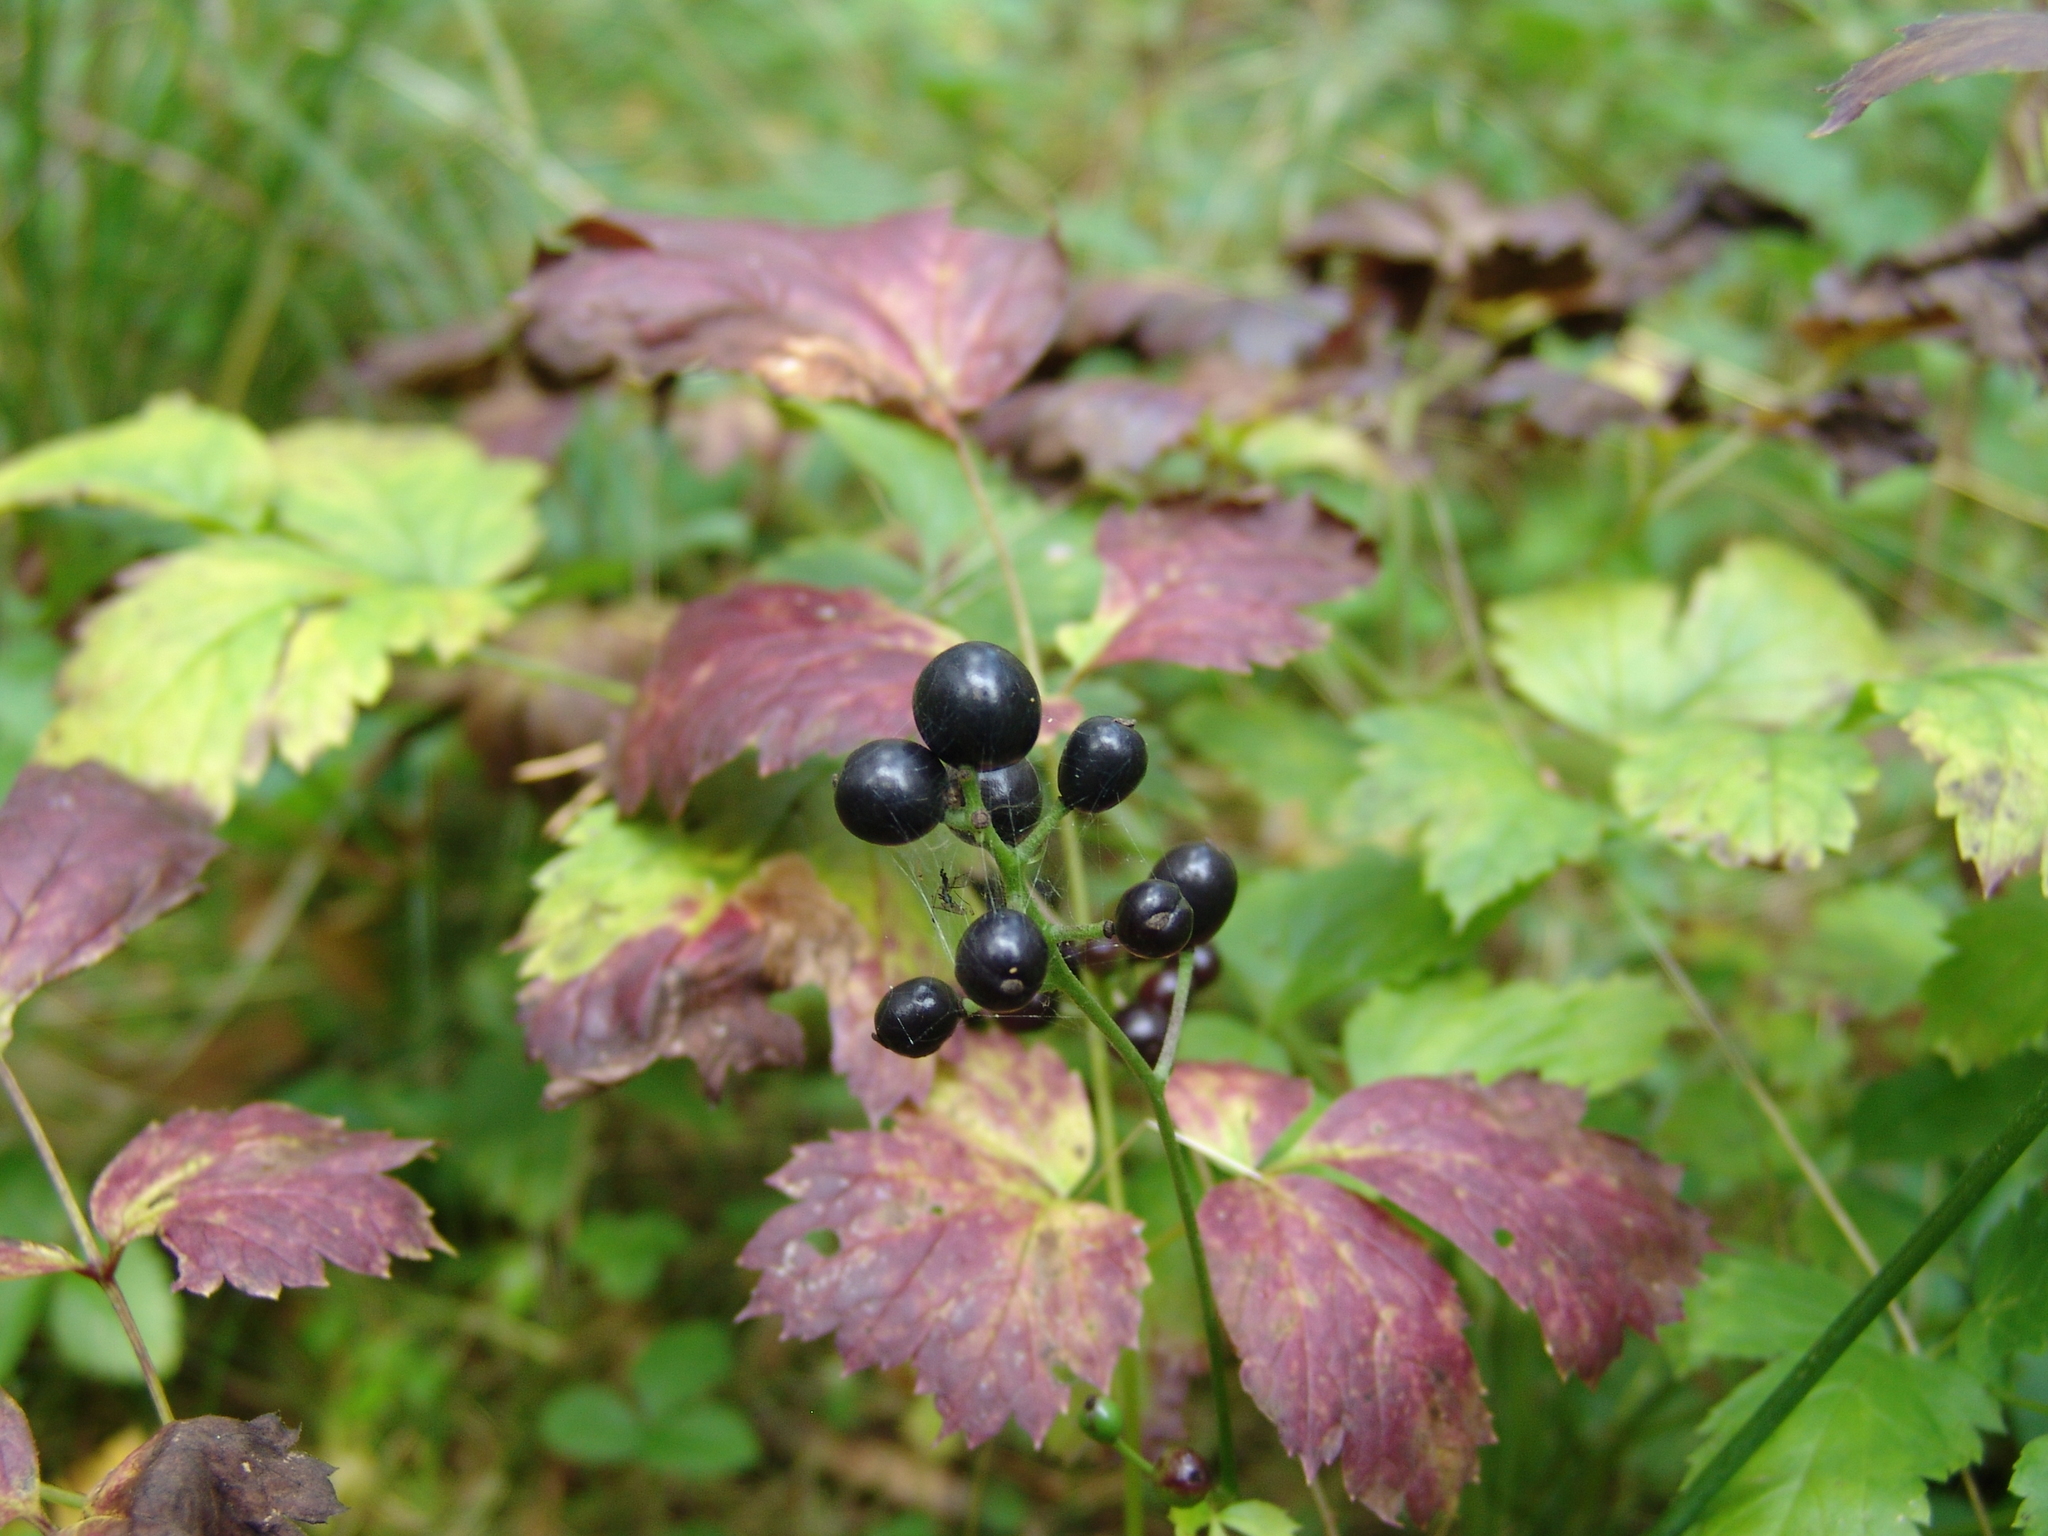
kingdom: Plantae
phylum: Tracheophyta
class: Magnoliopsida
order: Ranunculales
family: Ranunculaceae
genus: Actaea
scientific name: Actaea spicata
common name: Baneberry
